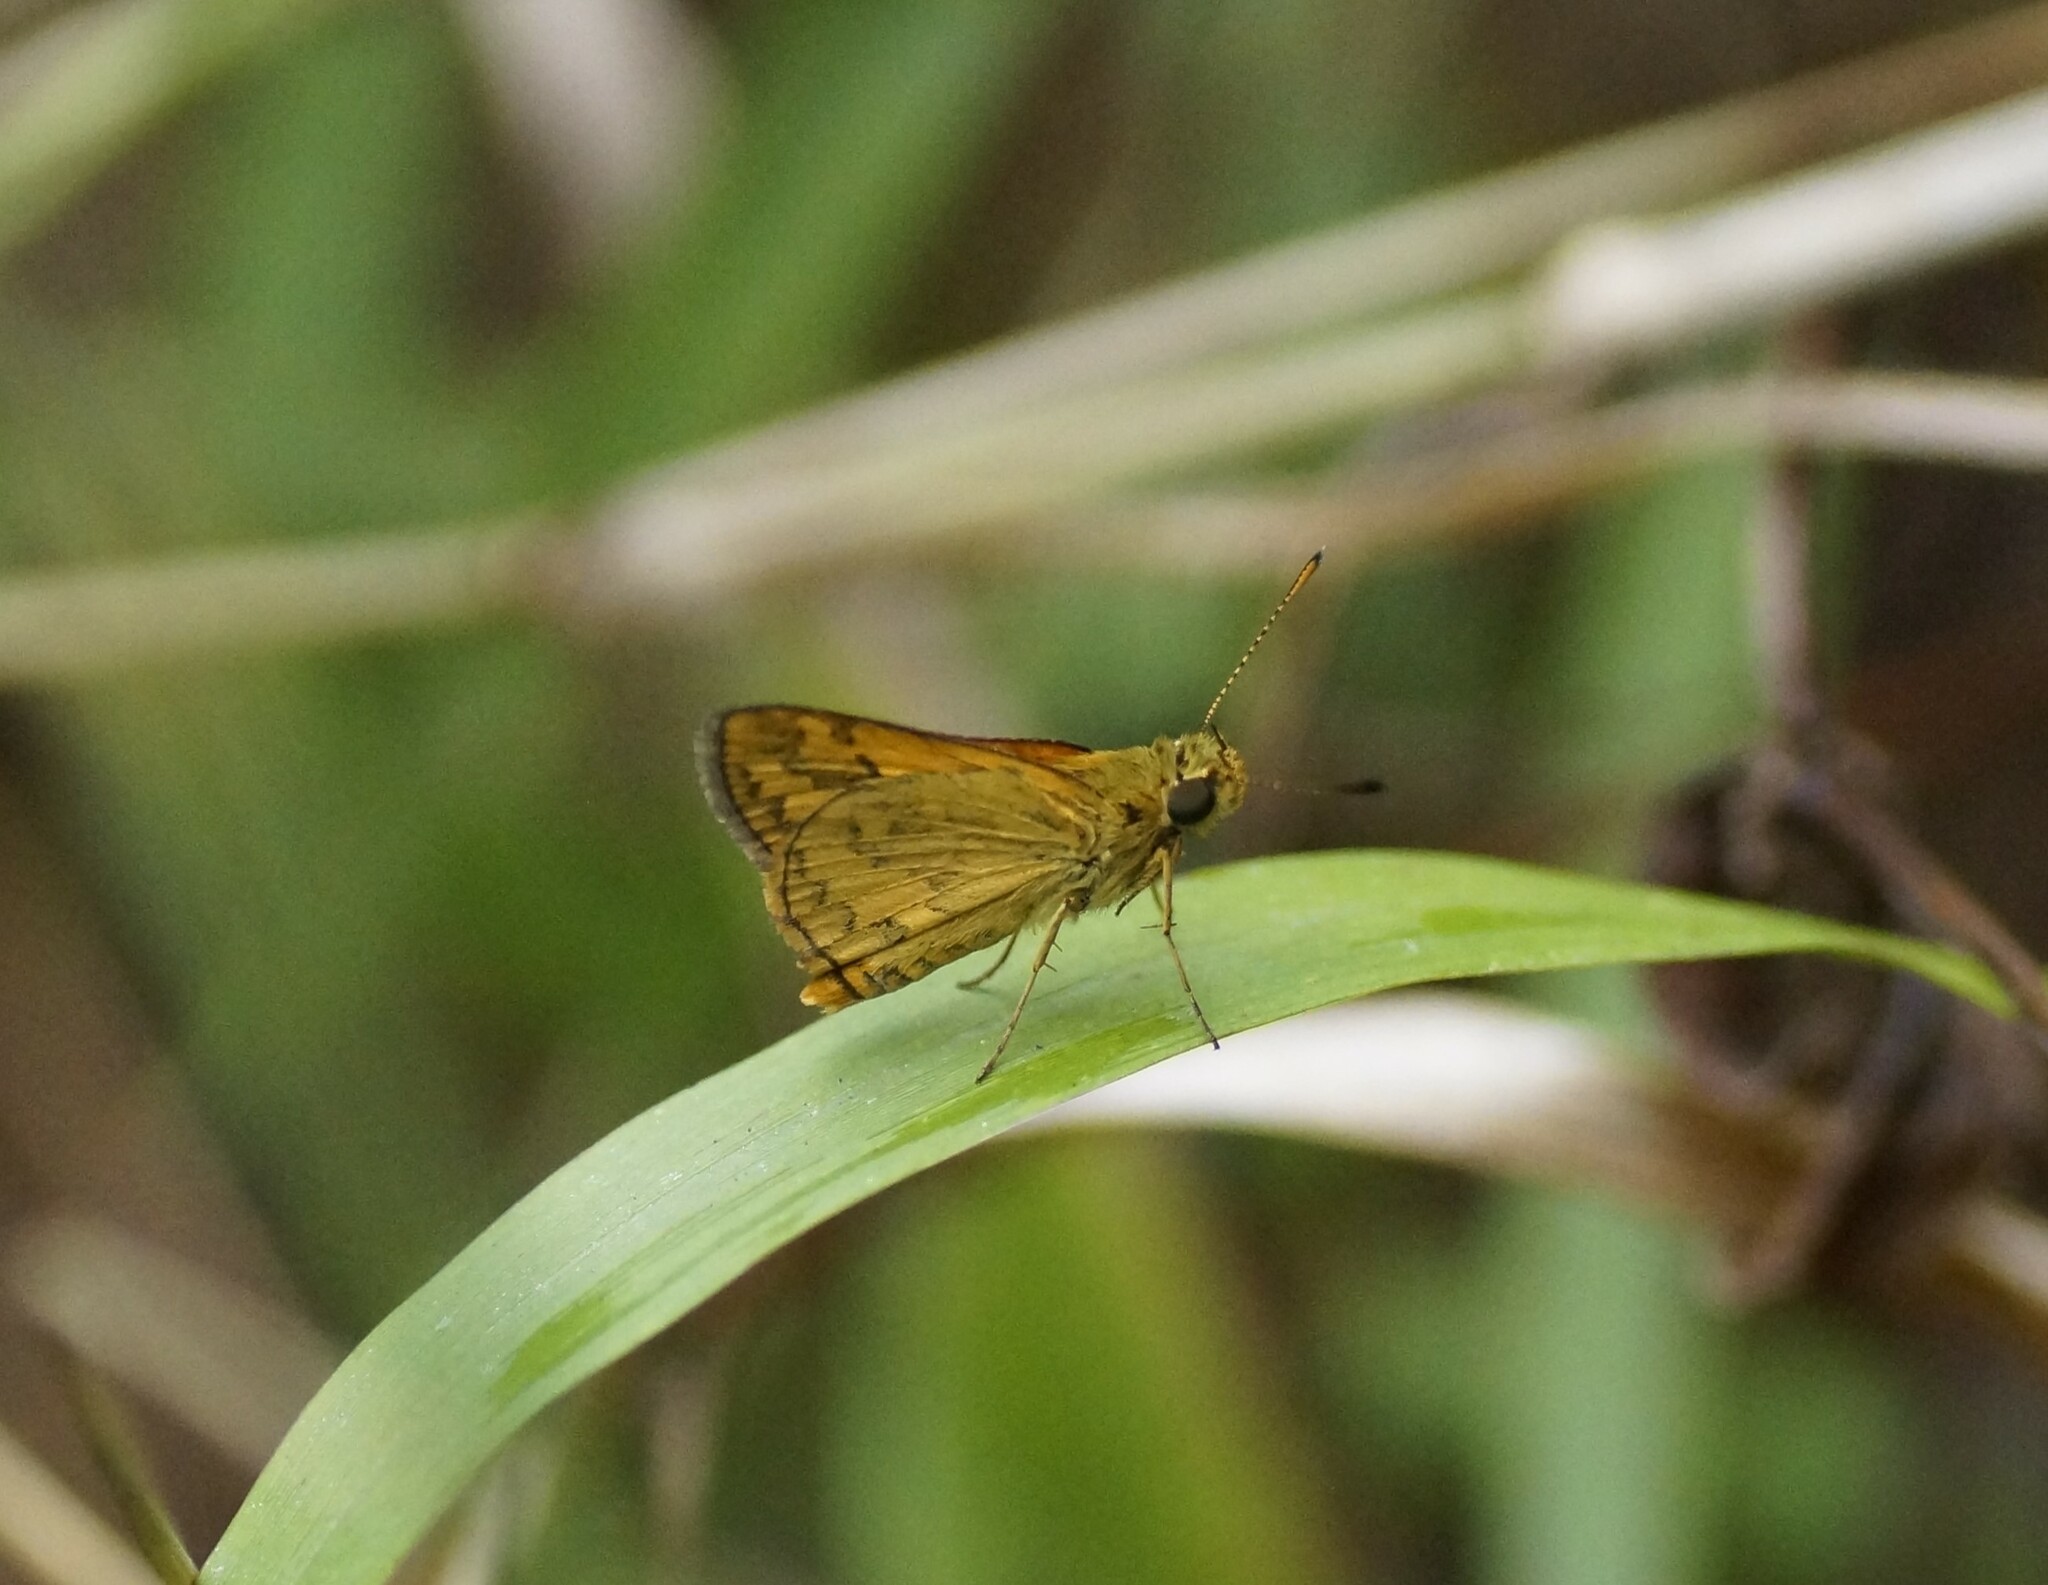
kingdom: Animalia
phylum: Arthropoda
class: Insecta
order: Lepidoptera
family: Hesperiidae
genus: Suniana
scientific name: Suniana sunias
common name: Wide-brand grass-dart
